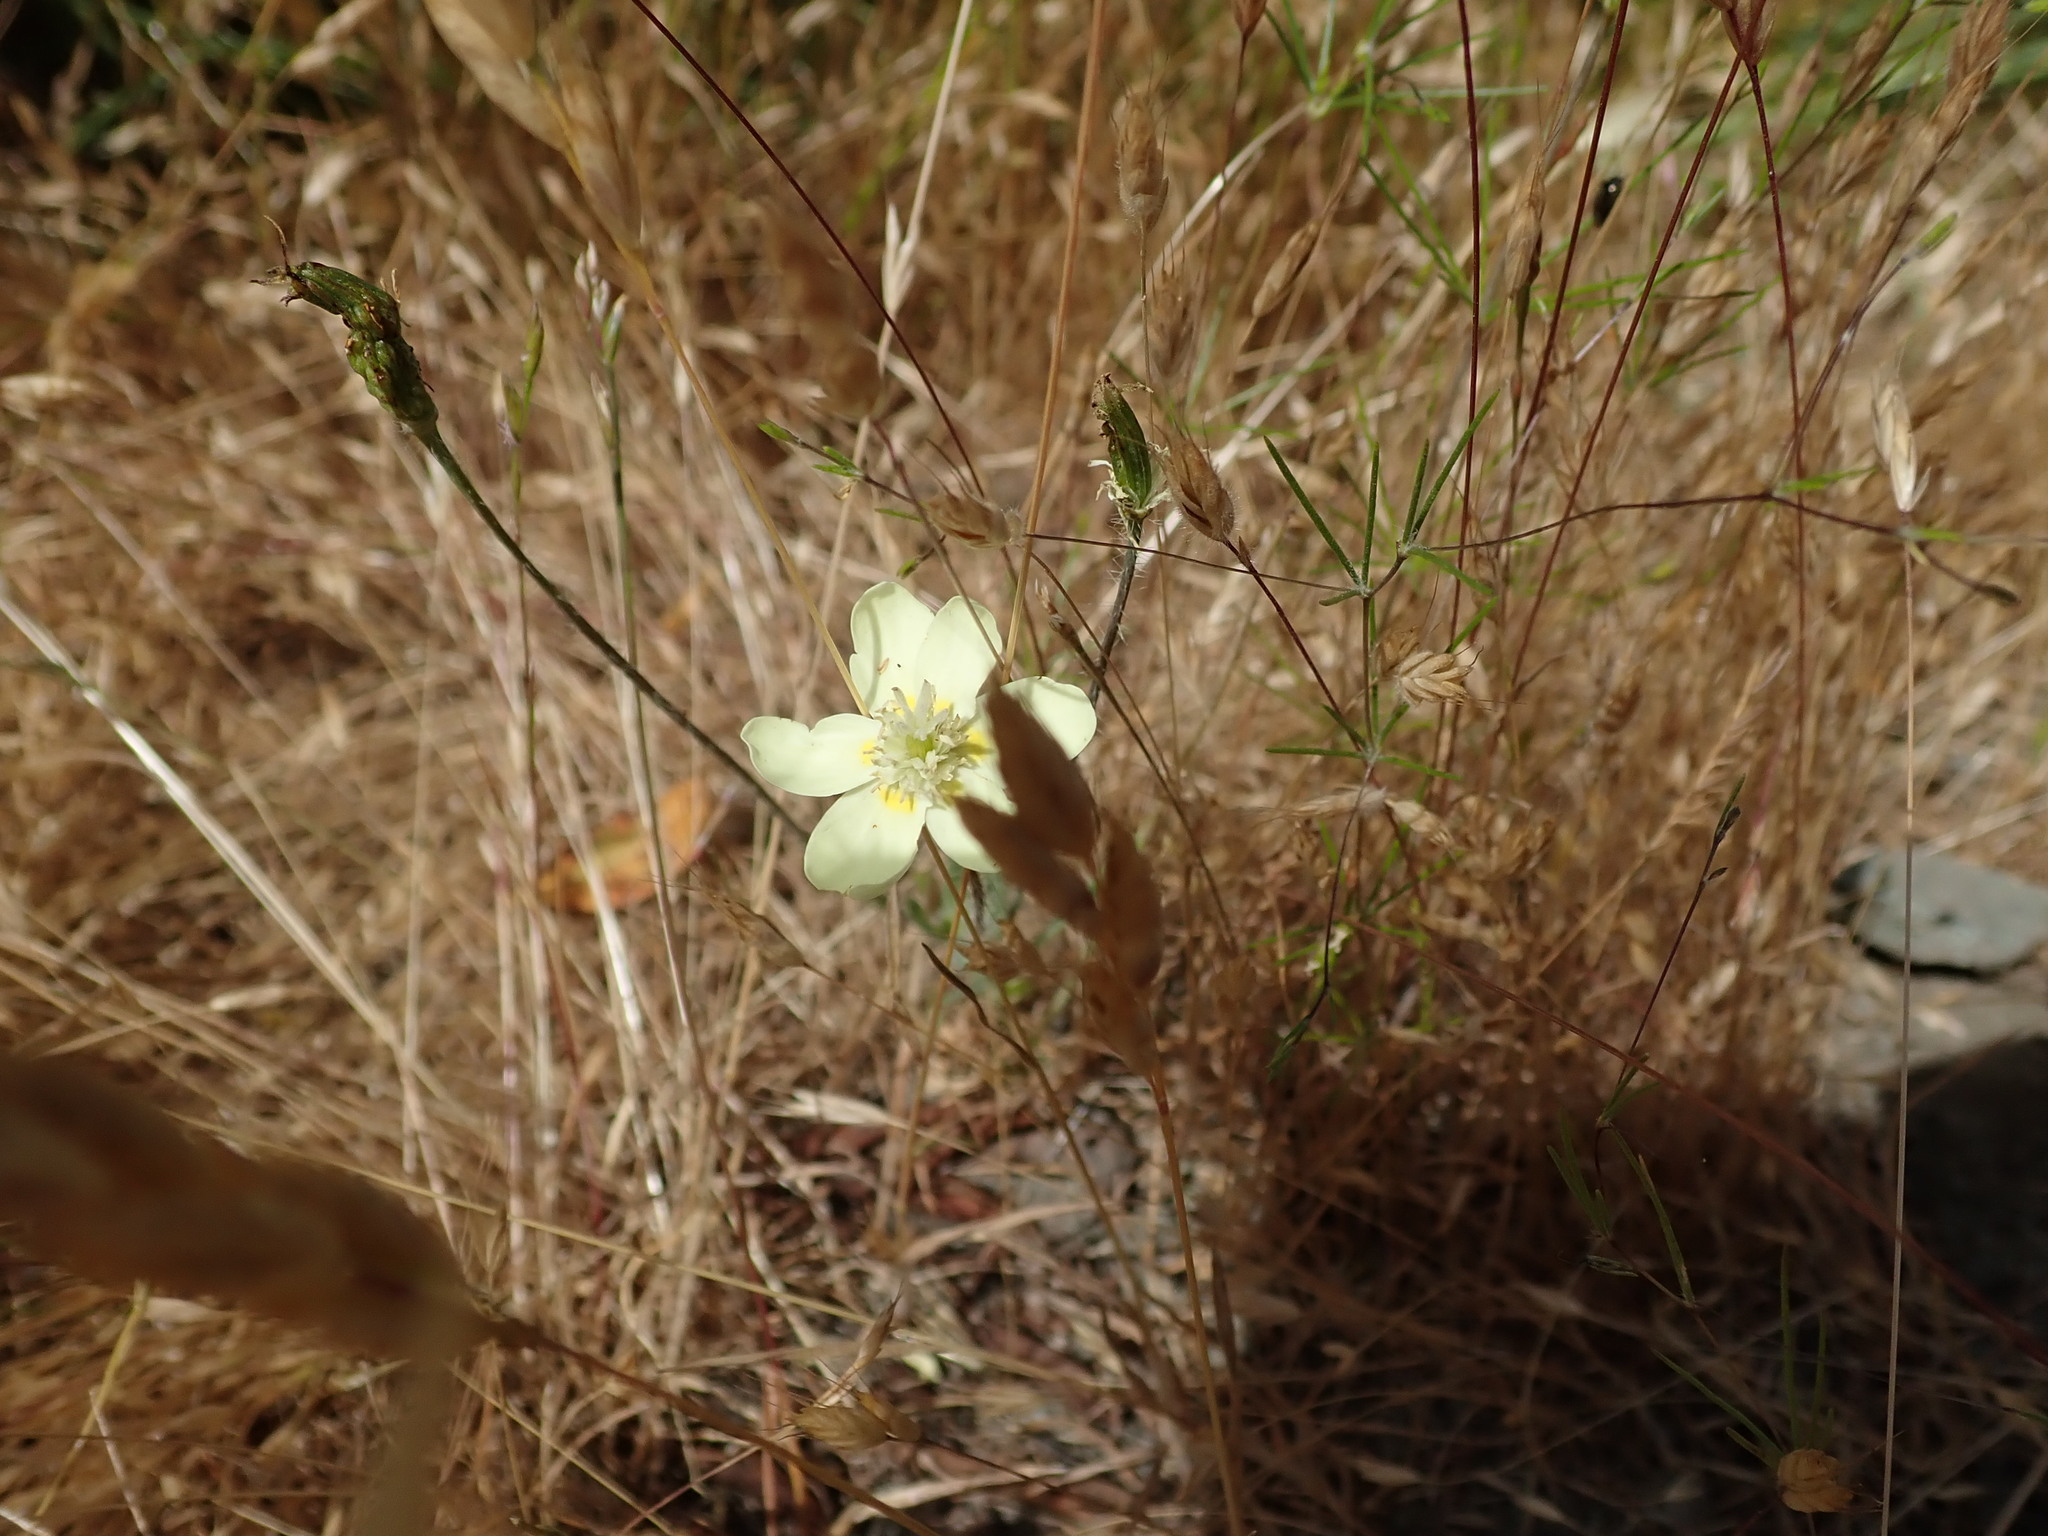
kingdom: Plantae
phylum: Tracheophyta
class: Magnoliopsida
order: Ranunculales
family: Papaveraceae
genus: Platystemon
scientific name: Platystemon californicus
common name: Cream-cups
